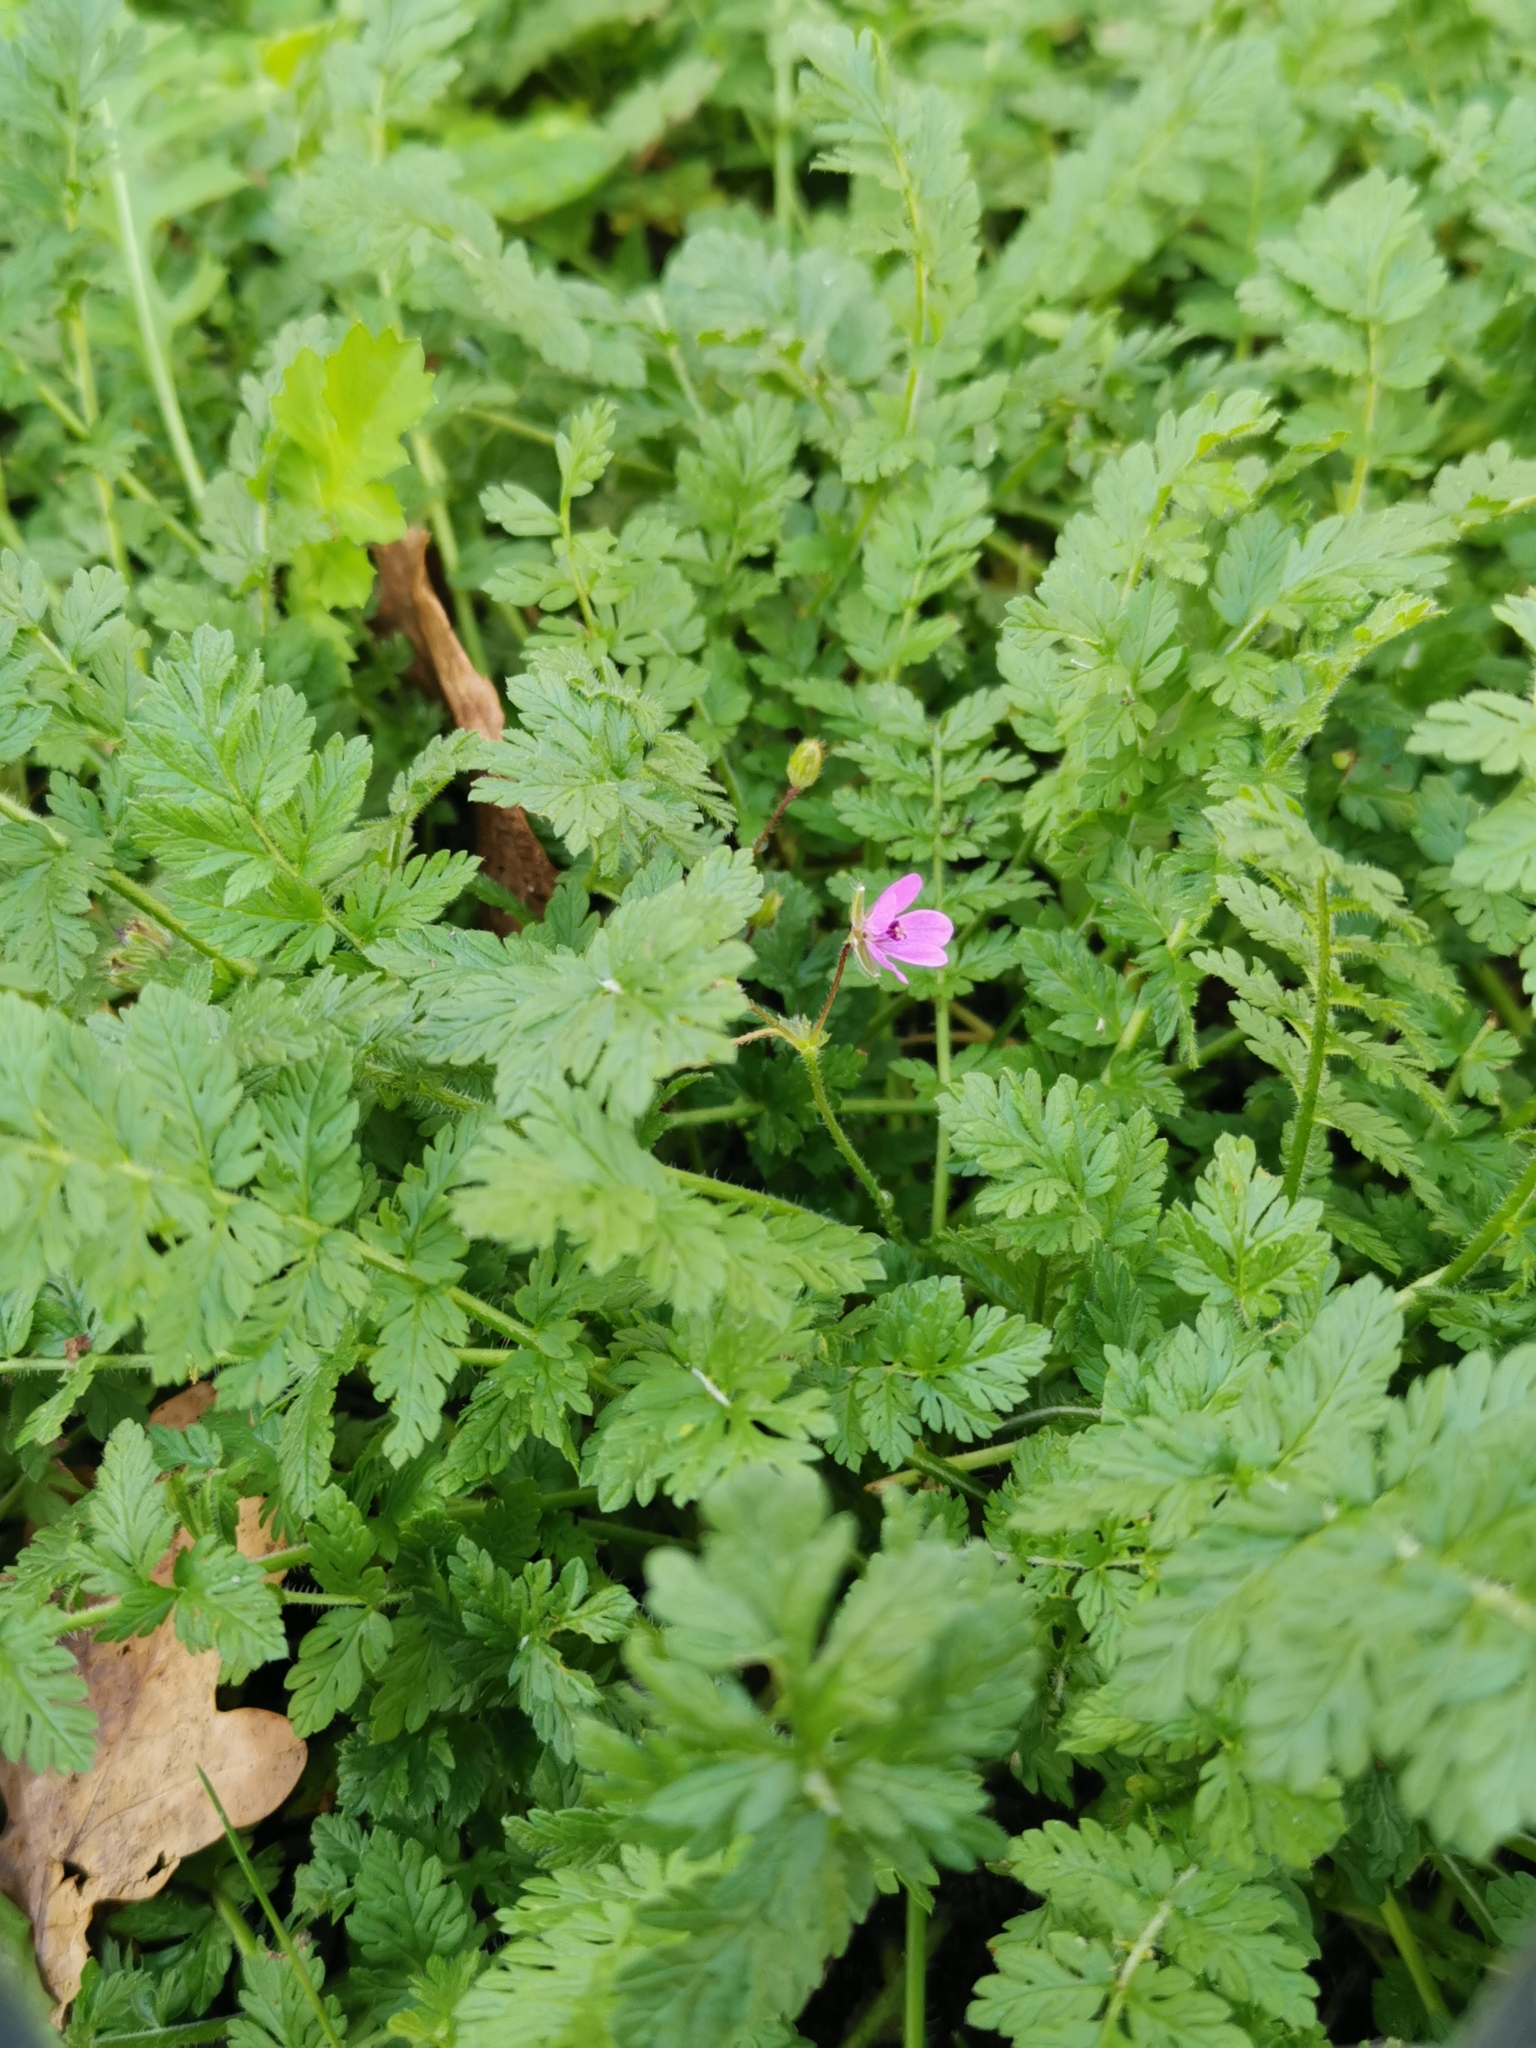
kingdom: Plantae
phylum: Tracheophyta
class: Magnoliopsida
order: Geraniales
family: Geraniaceae
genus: Erodium
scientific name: Erodium cicutarium
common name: Common stork's-bill
